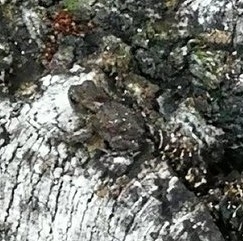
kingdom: Animalia
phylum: Chordata
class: Amphibia
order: Anura
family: Bufonidae
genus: Bufo
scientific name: Bufo bufo
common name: Common toad
